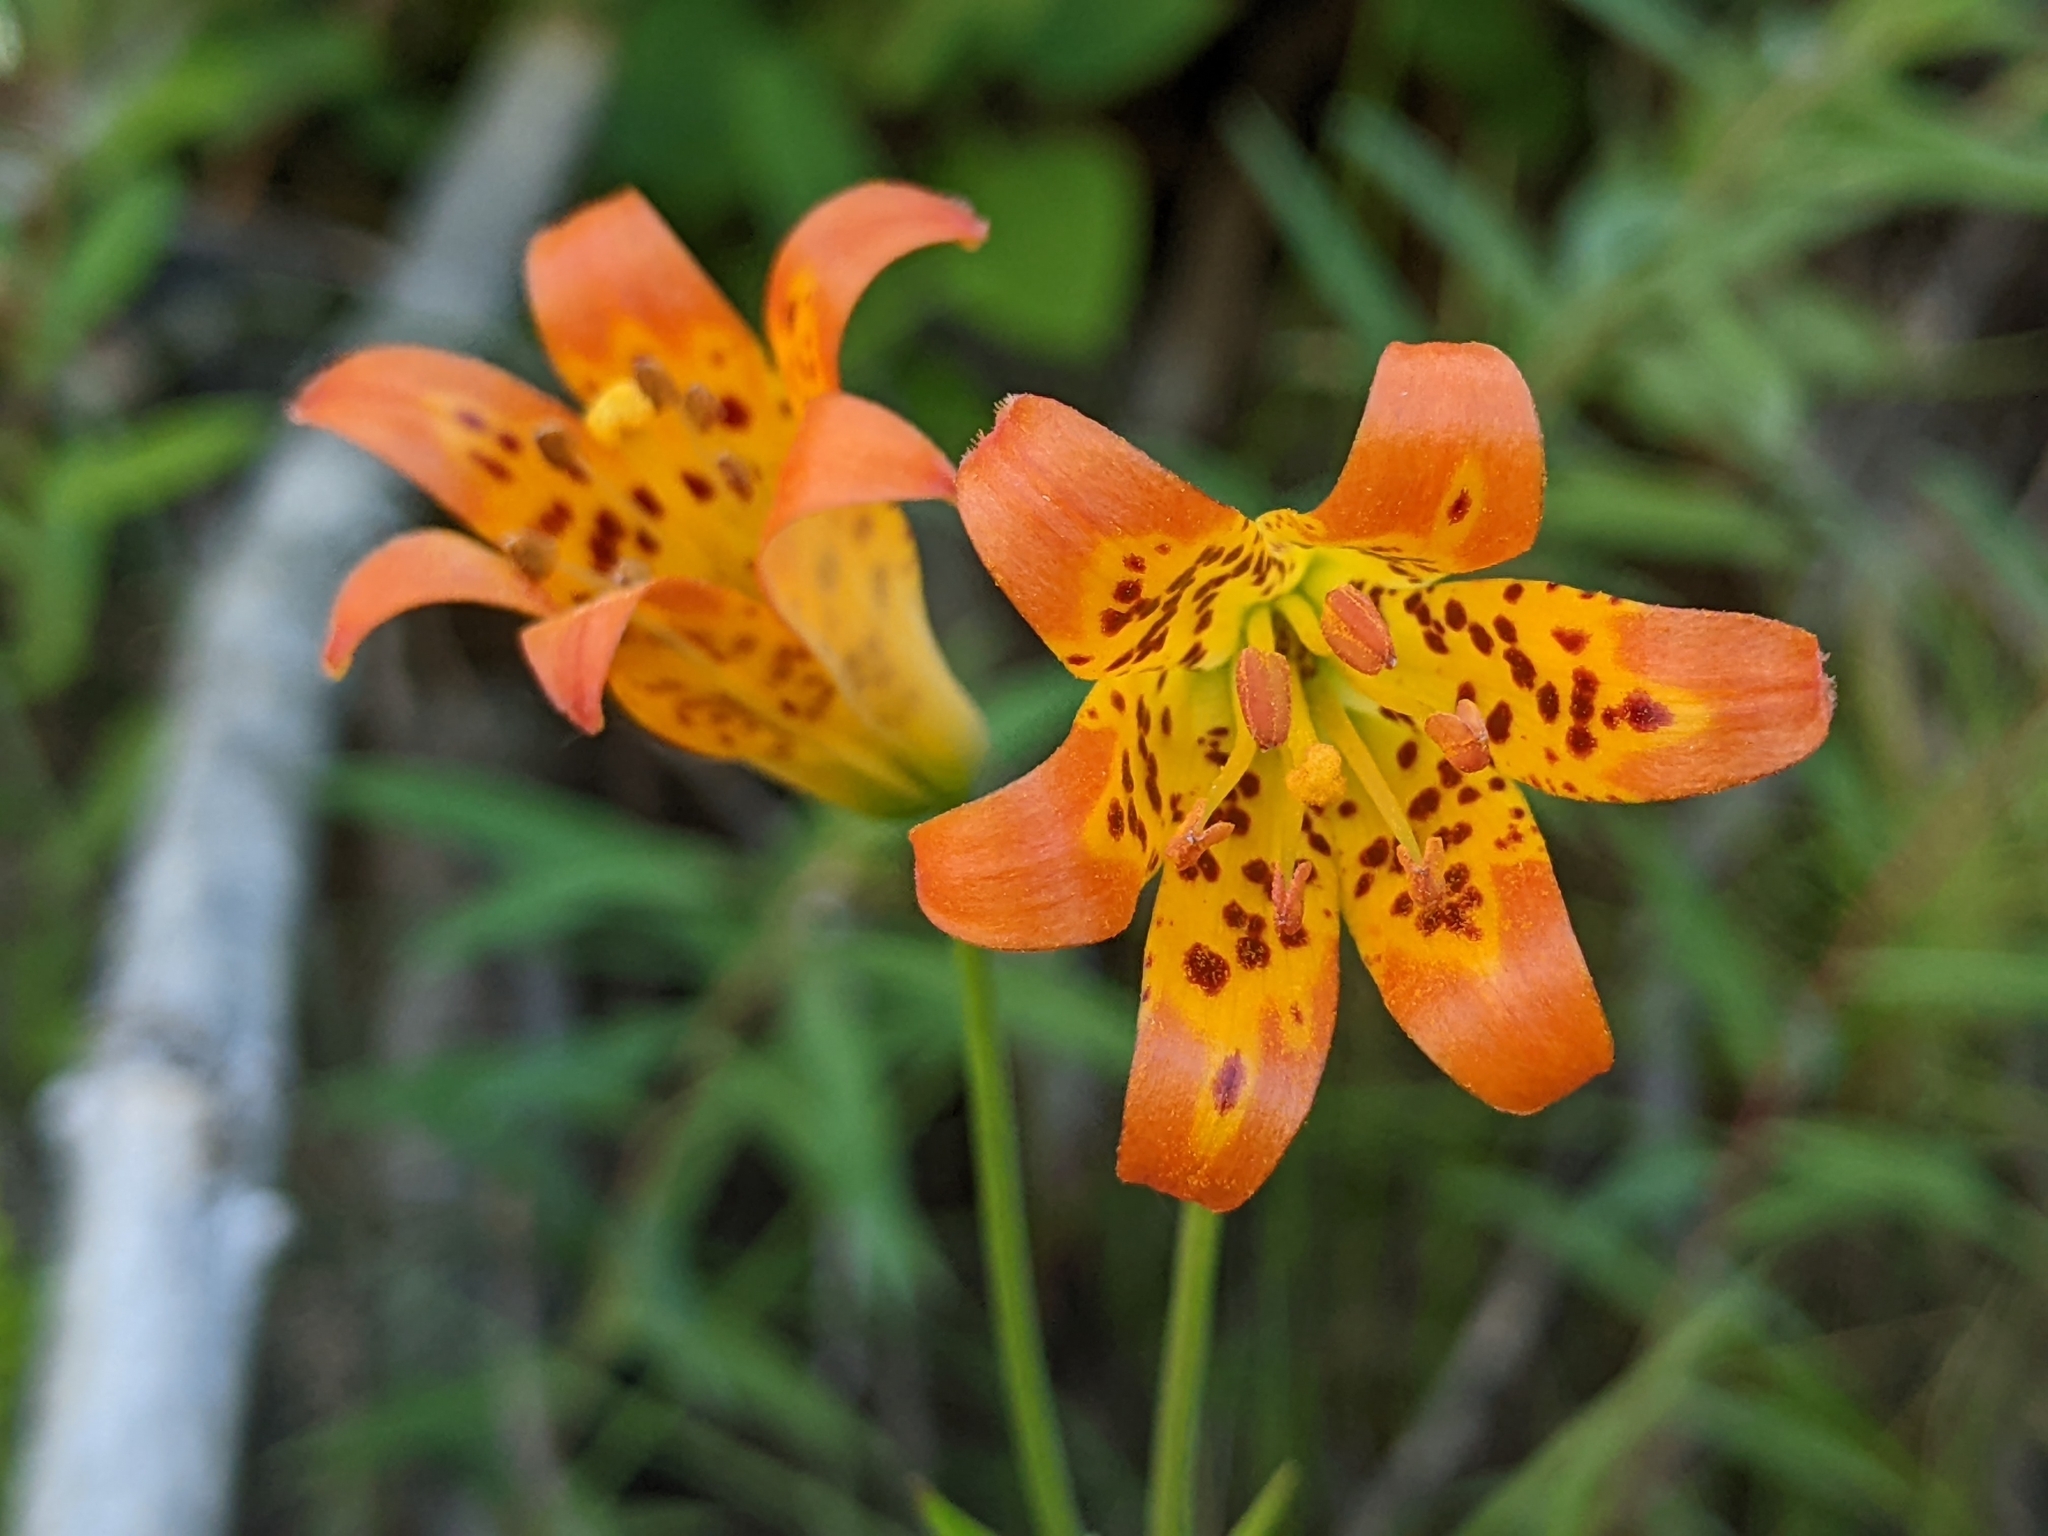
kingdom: Plantae
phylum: Tracheophyta
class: Liliopsida
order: Liliales
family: Liliaceae
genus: Lilium
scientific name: Lilium parvum
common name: Alpine lily
